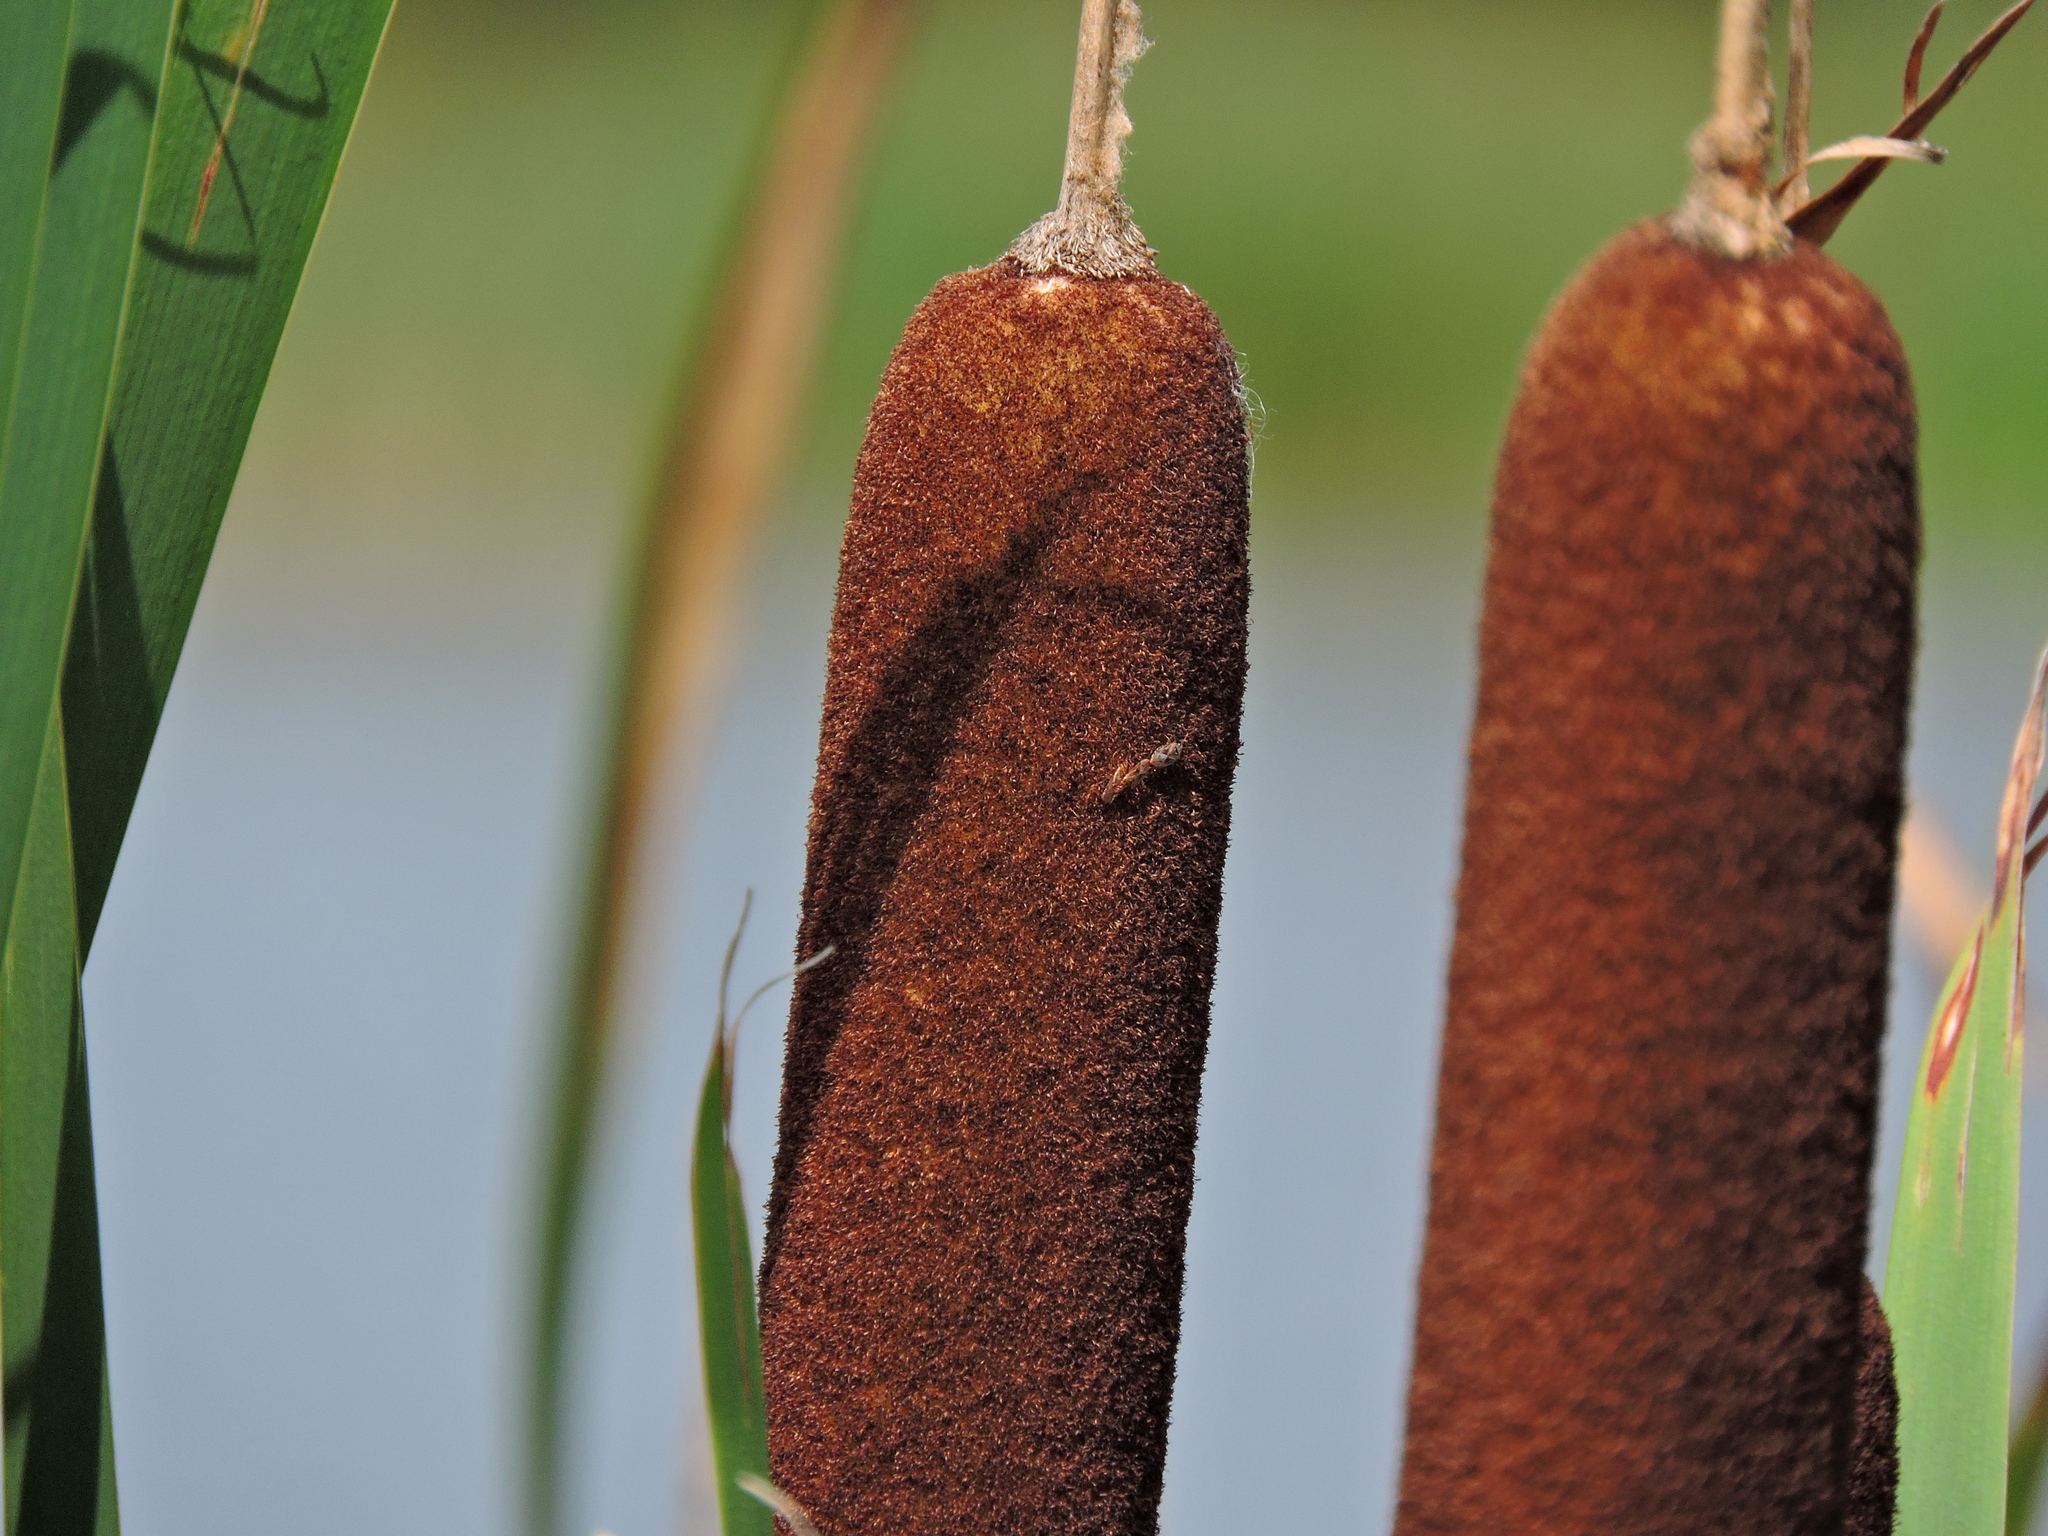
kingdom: Plantae
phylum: Tracheophyta
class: Liliopsida
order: Poales
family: Typhaceae
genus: Typha
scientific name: Typha latifolia
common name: Broadleaf cattail
